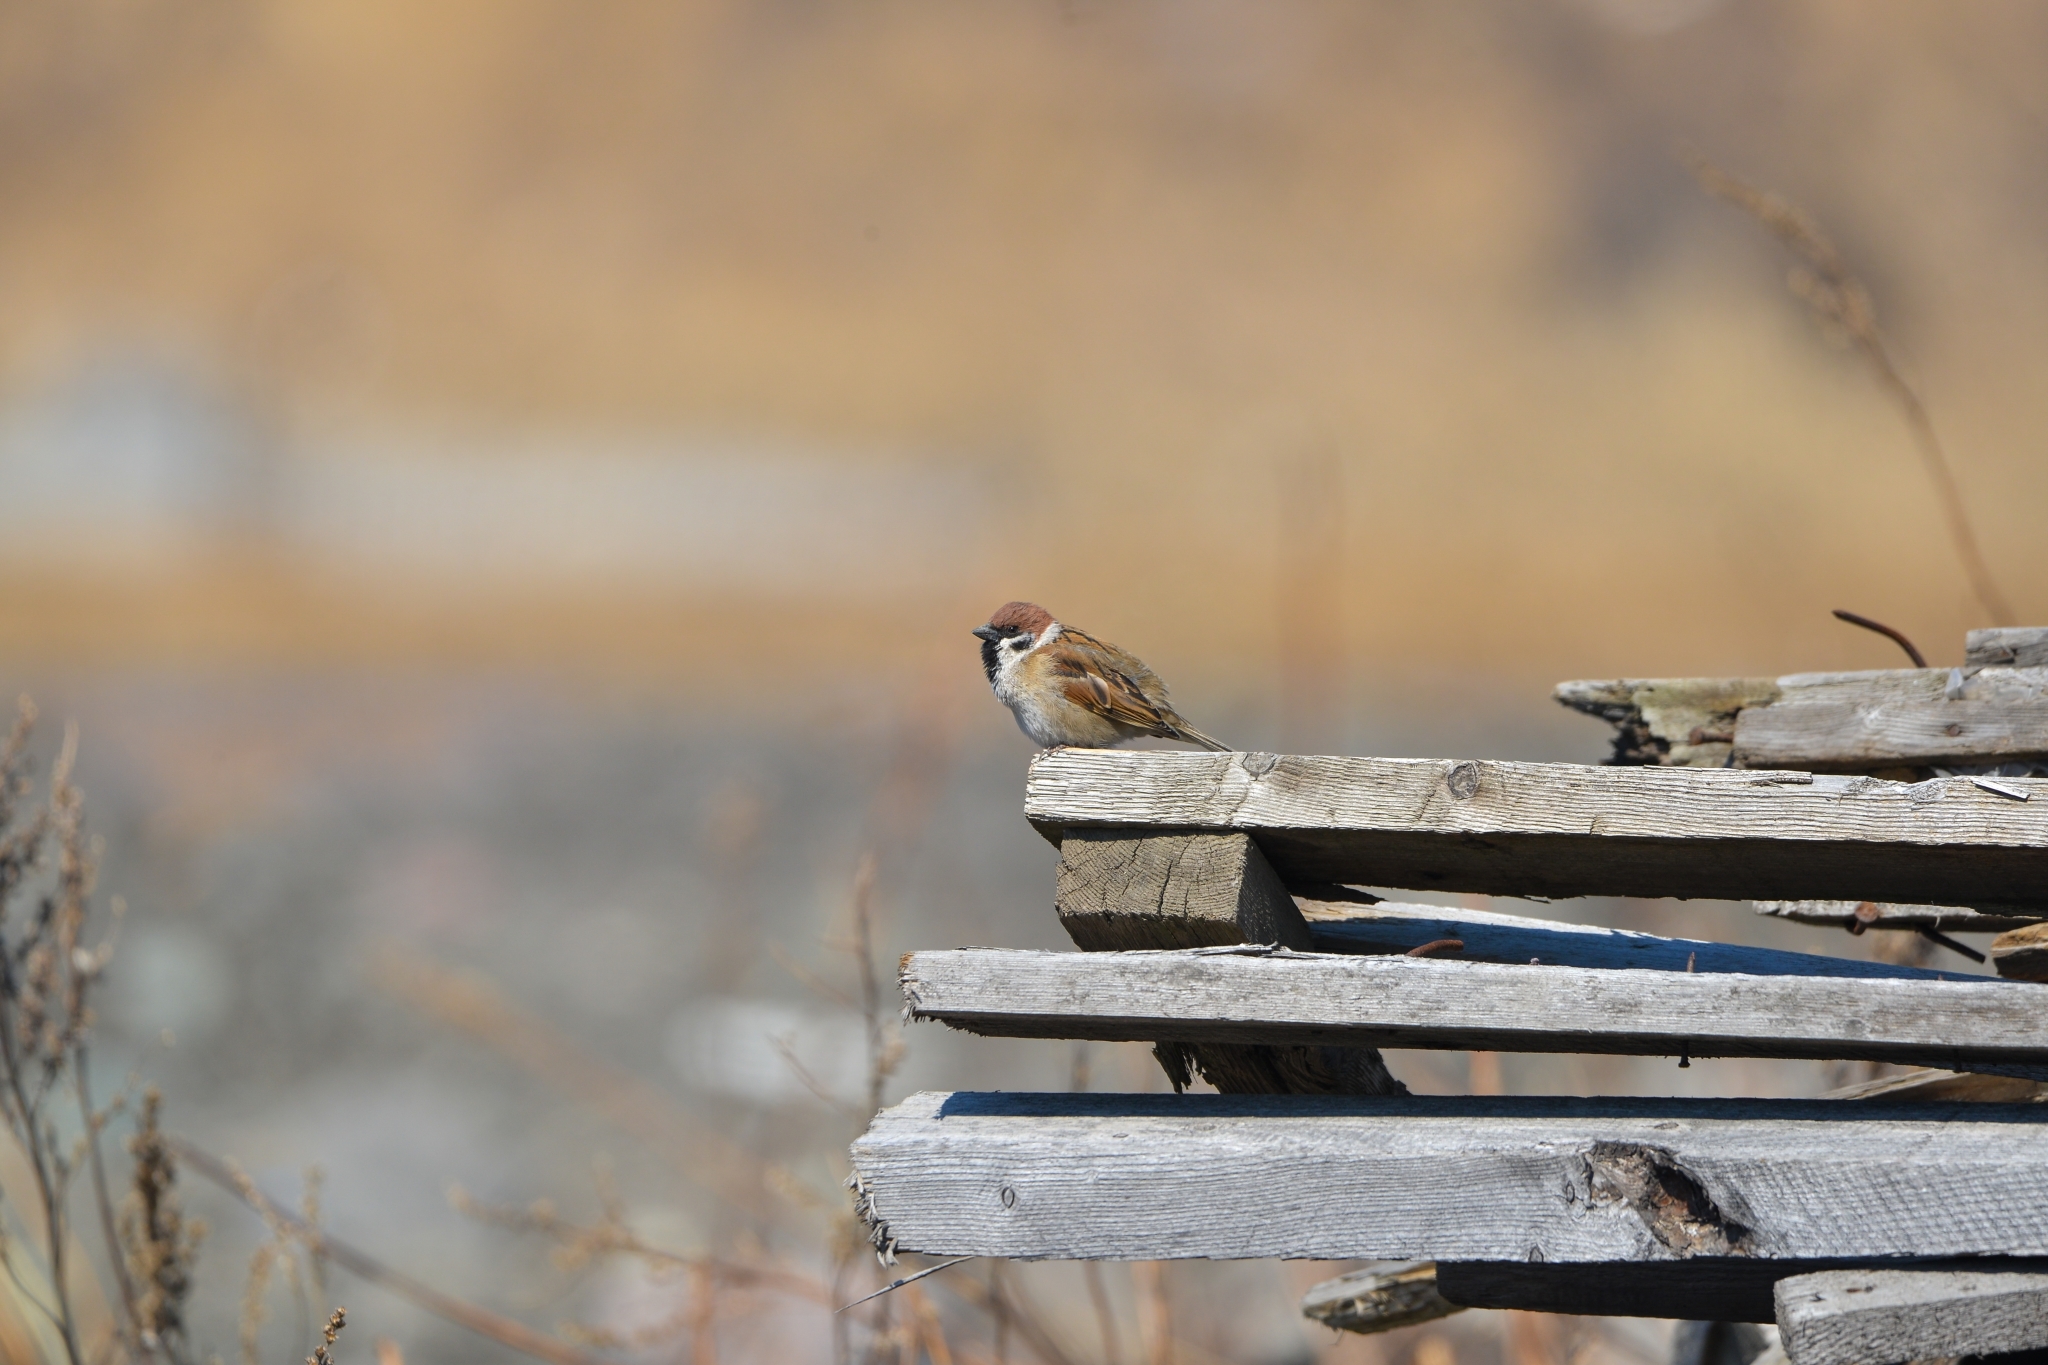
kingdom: Animalia
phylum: Chordata
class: Aves
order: Passeriformes
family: Passeridae
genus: Passer
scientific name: Passer montanus
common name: Eurasian tree sparrow
